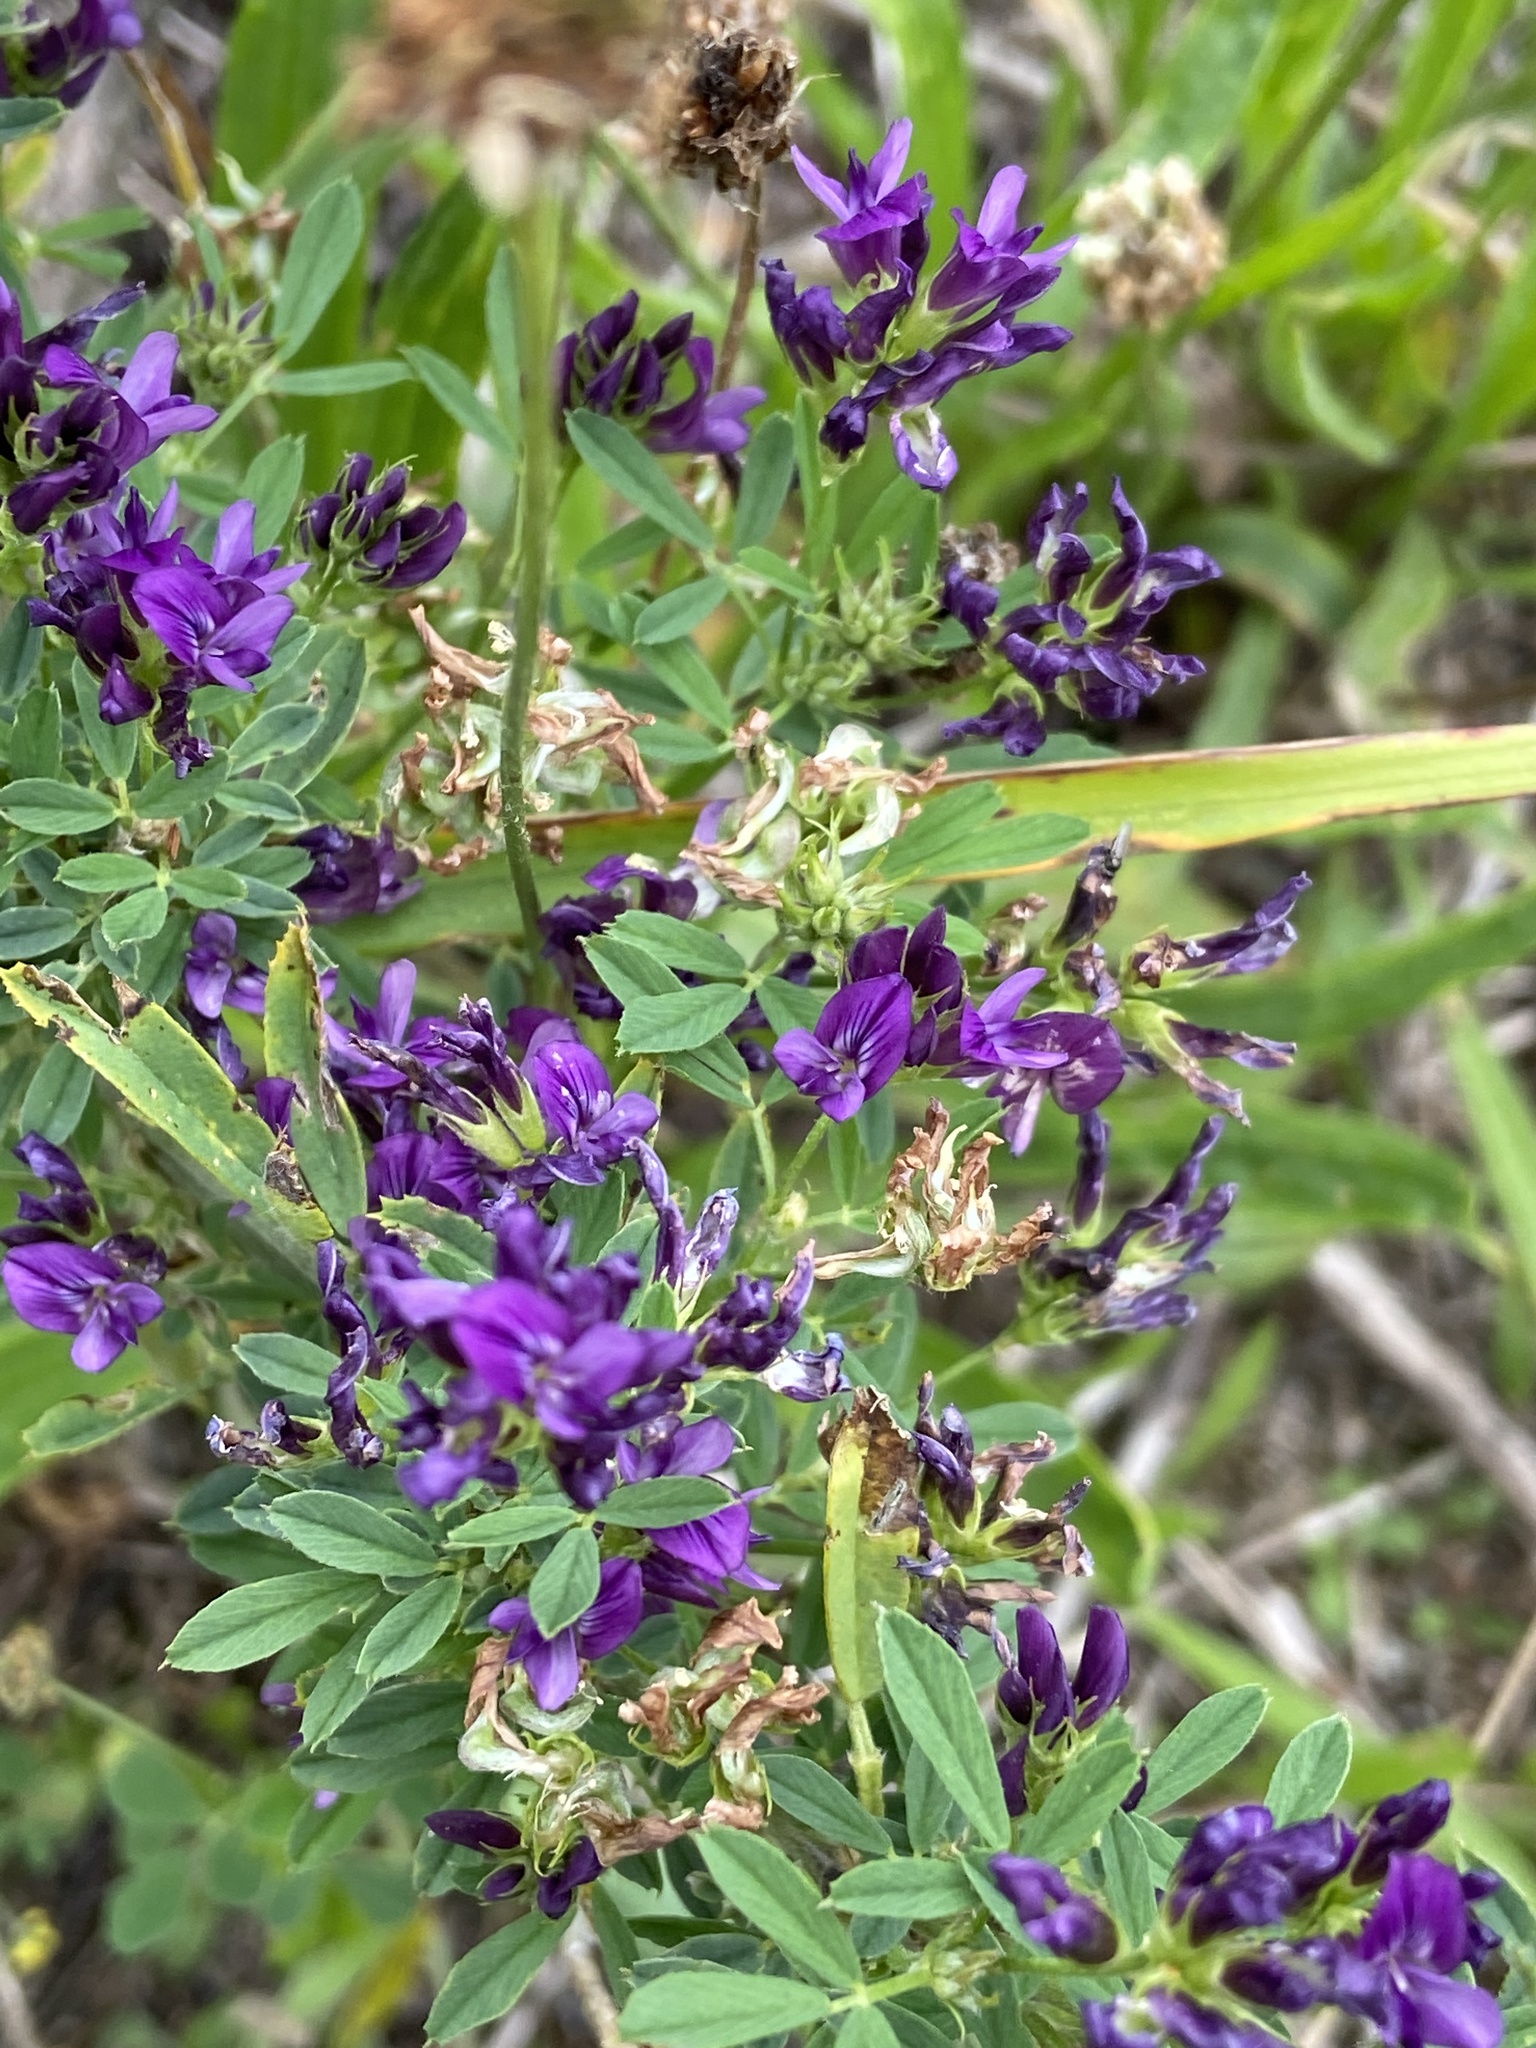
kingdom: Plantae
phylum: Tracheophyta
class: Magnoliopsida
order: Fabales
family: Fabaceae
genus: Medicago
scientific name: Medicago sativa
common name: Alfalfa
